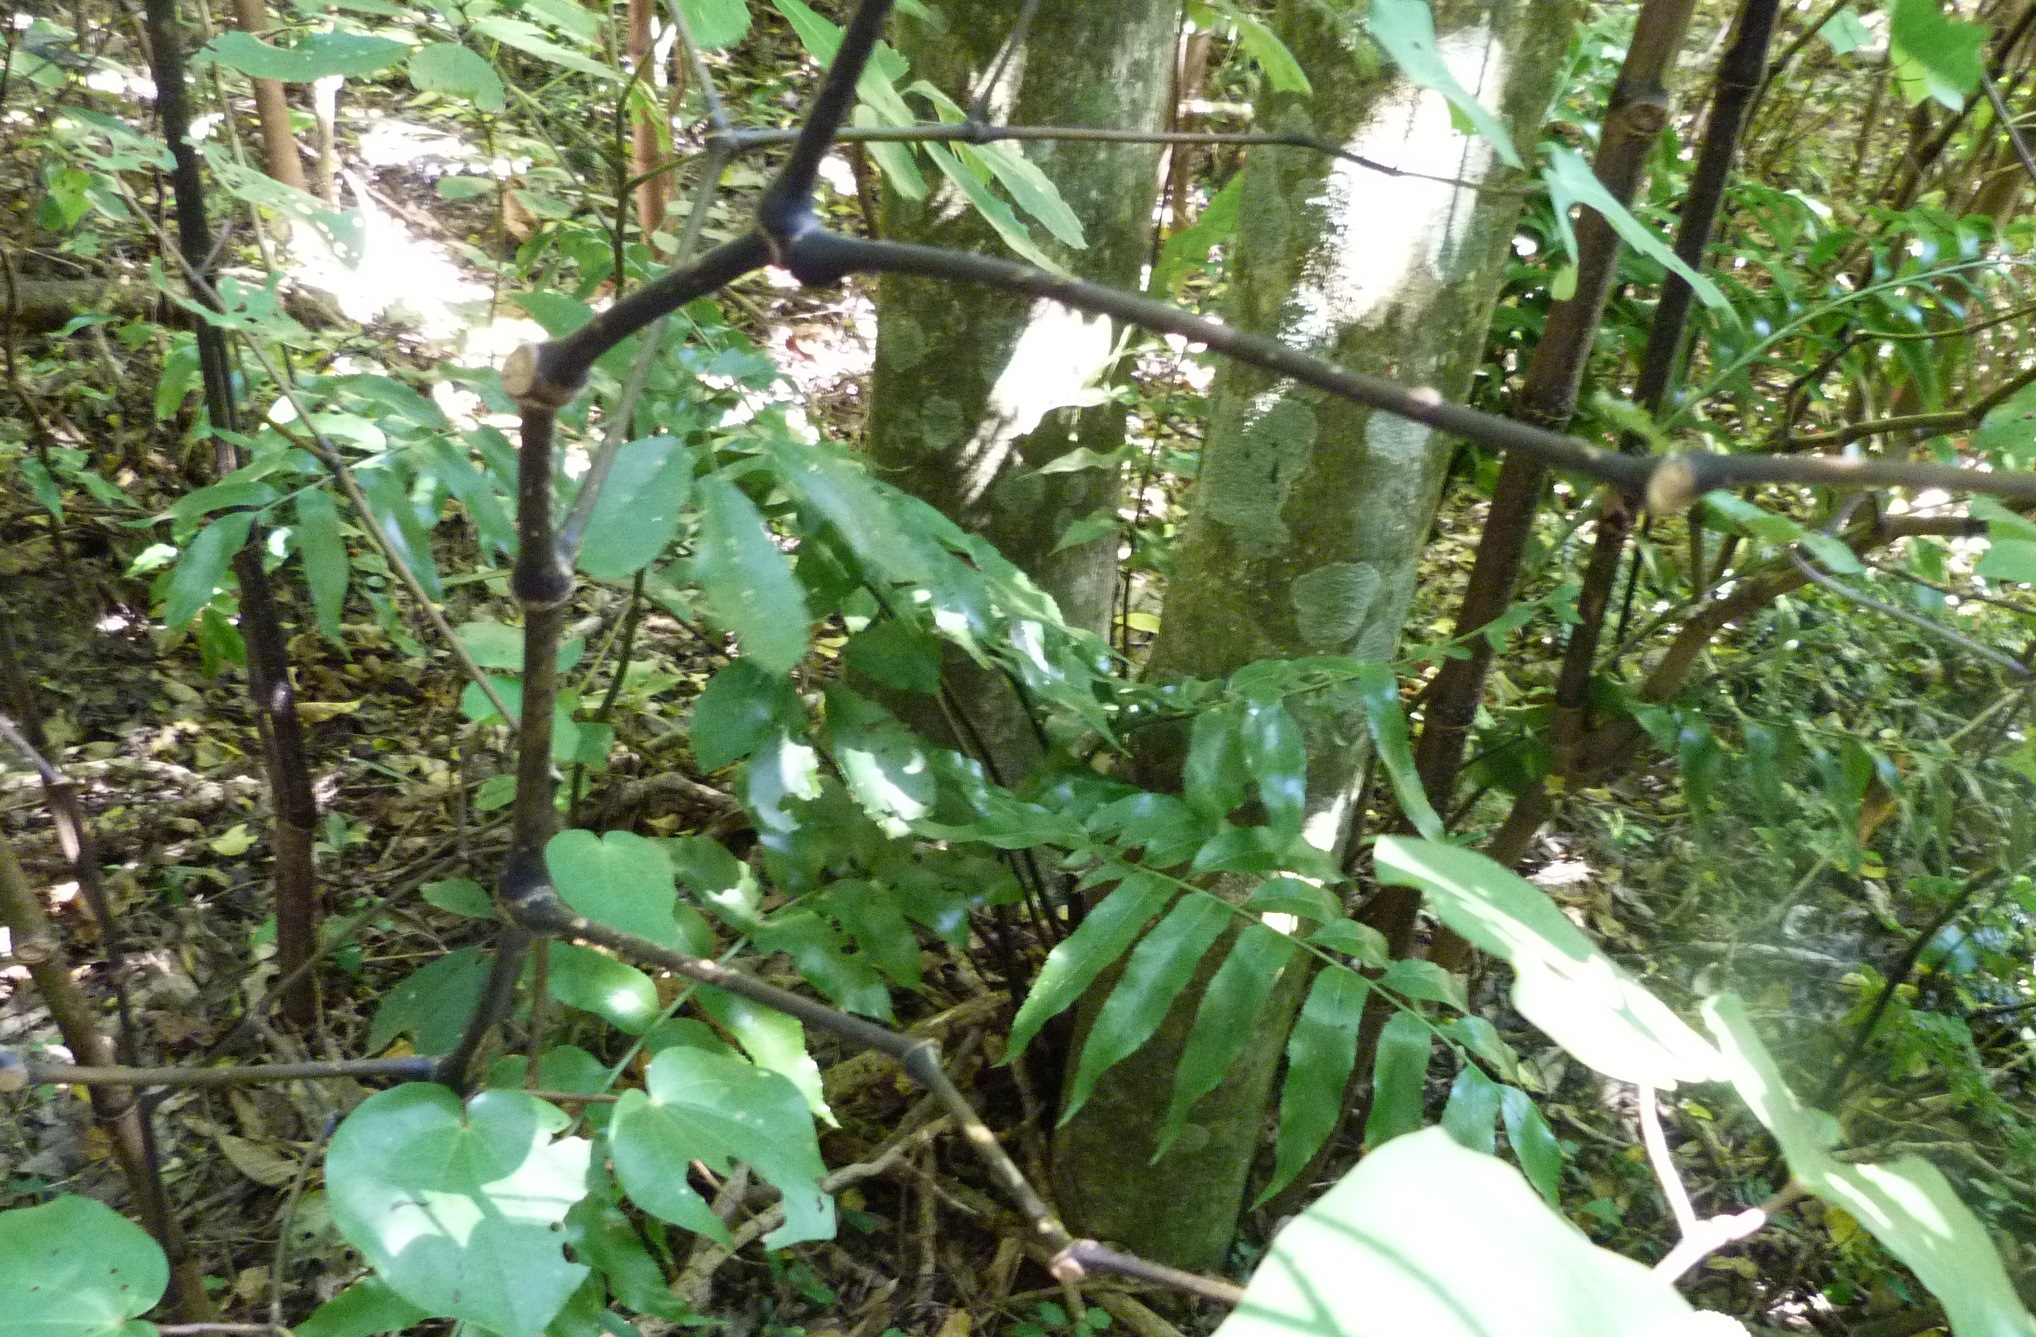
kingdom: Plantae
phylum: Tracheophyta
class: Polypodiopsida
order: Polypodiales
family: Aspleniaceae
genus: Asplenium
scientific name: Asplenium oblongifolium
